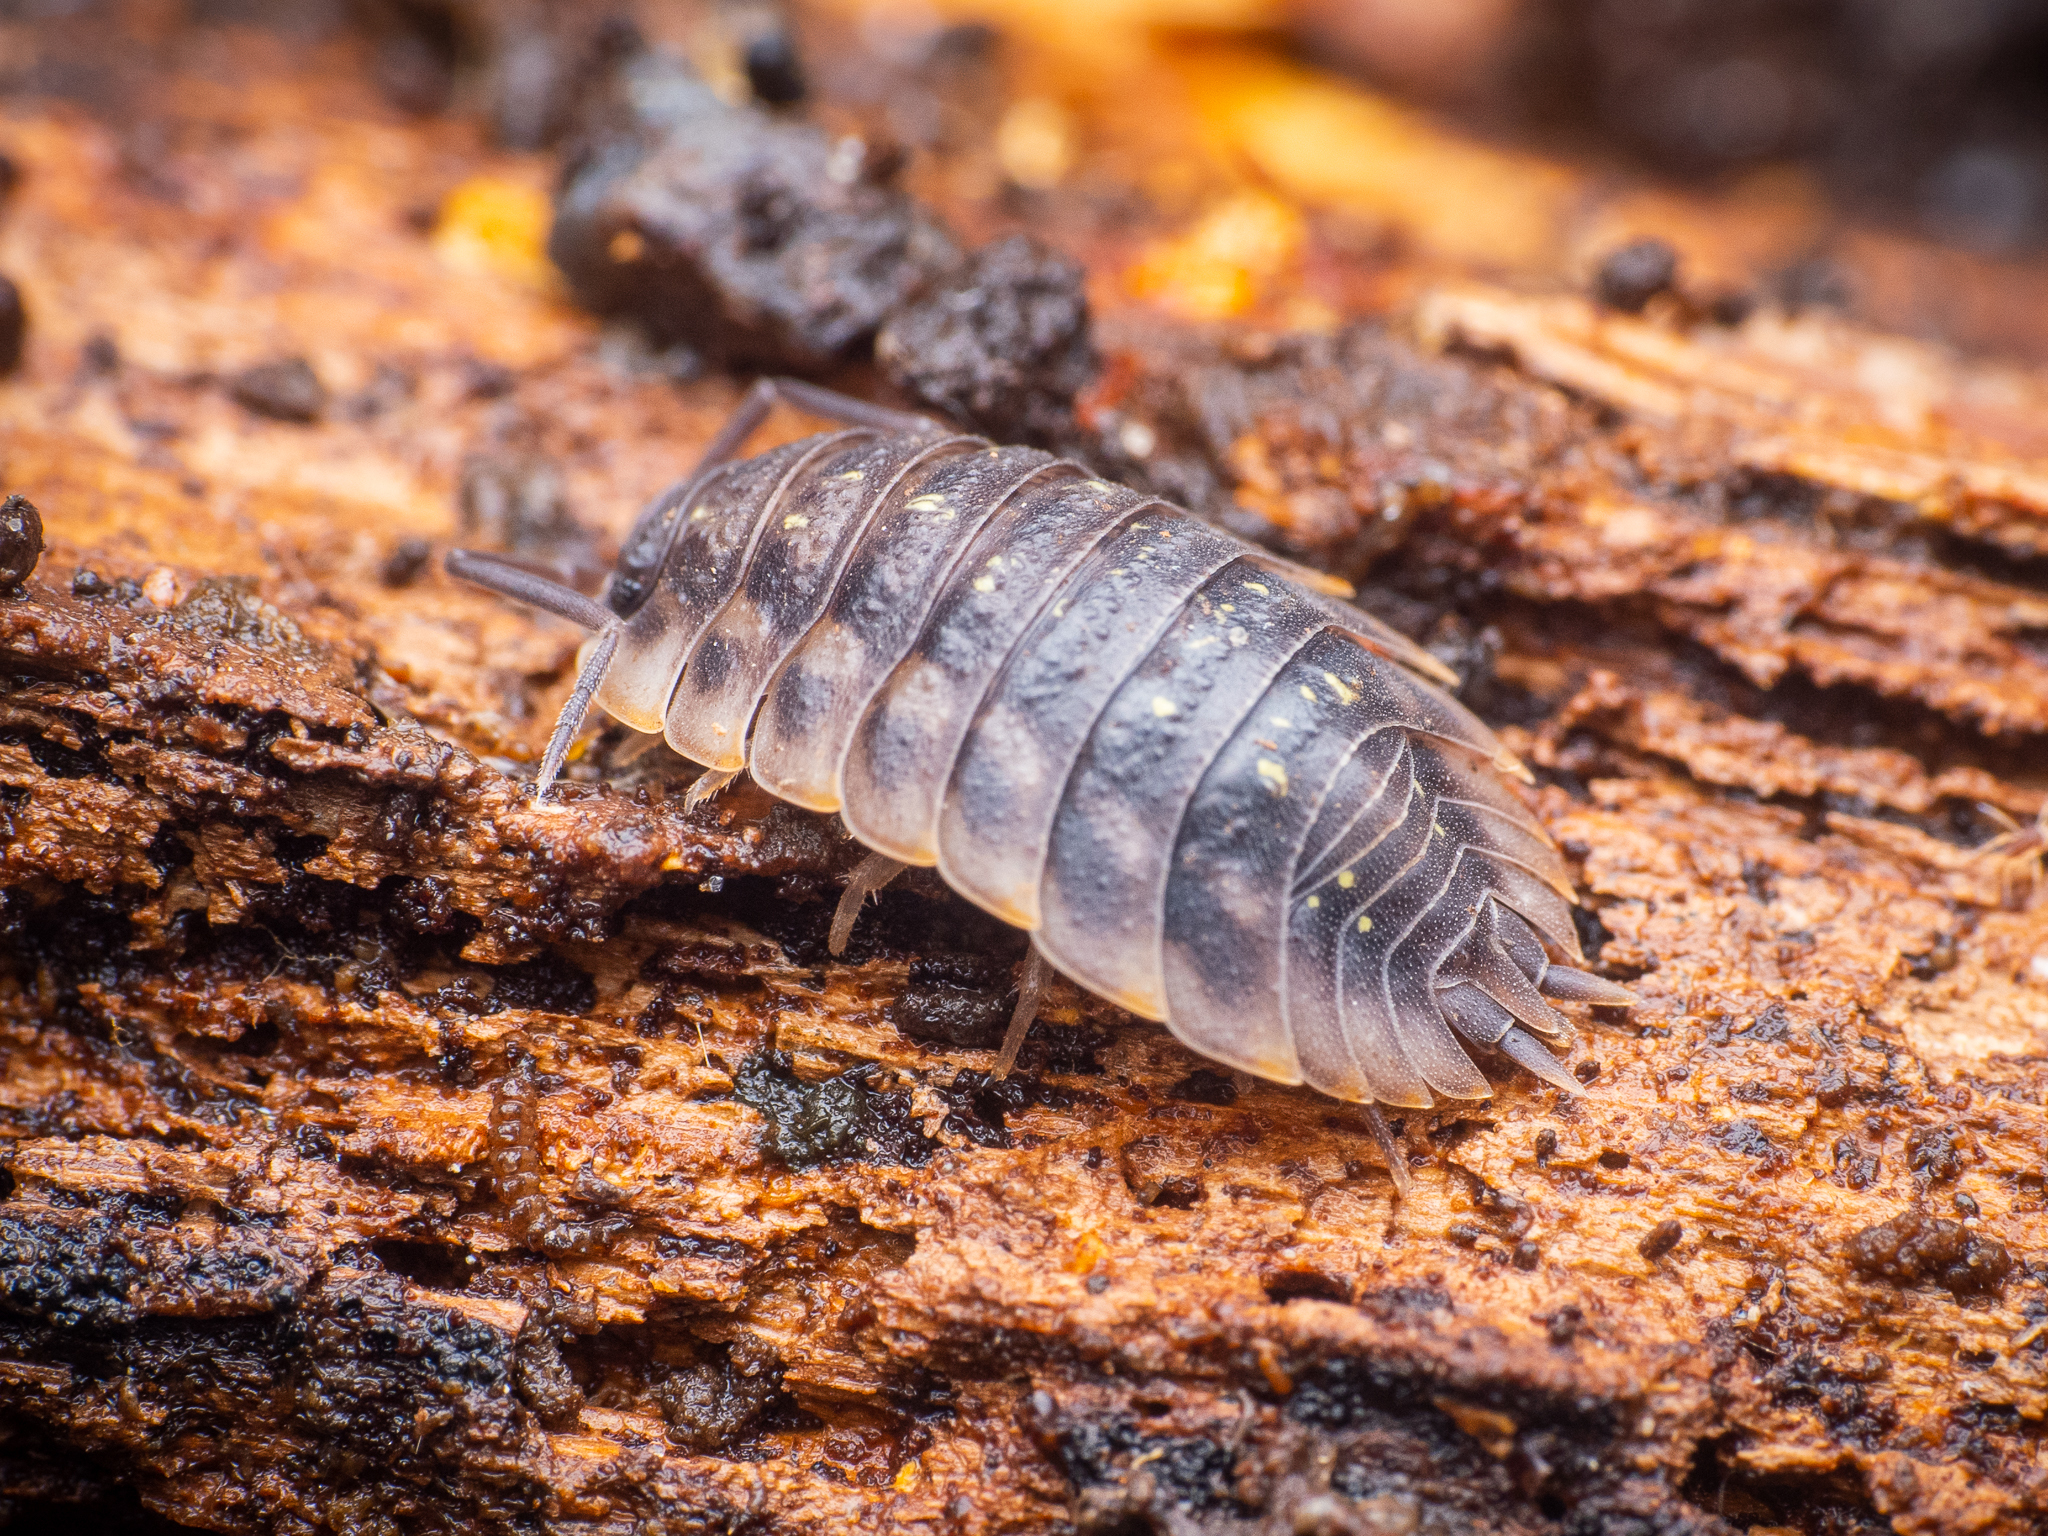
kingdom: Animalia
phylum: Arthropoda
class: Malacostraca
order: Isopoda
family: Oniscidae
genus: Oniscus
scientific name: Oniscus asellus
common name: Common shiny woodlouse
